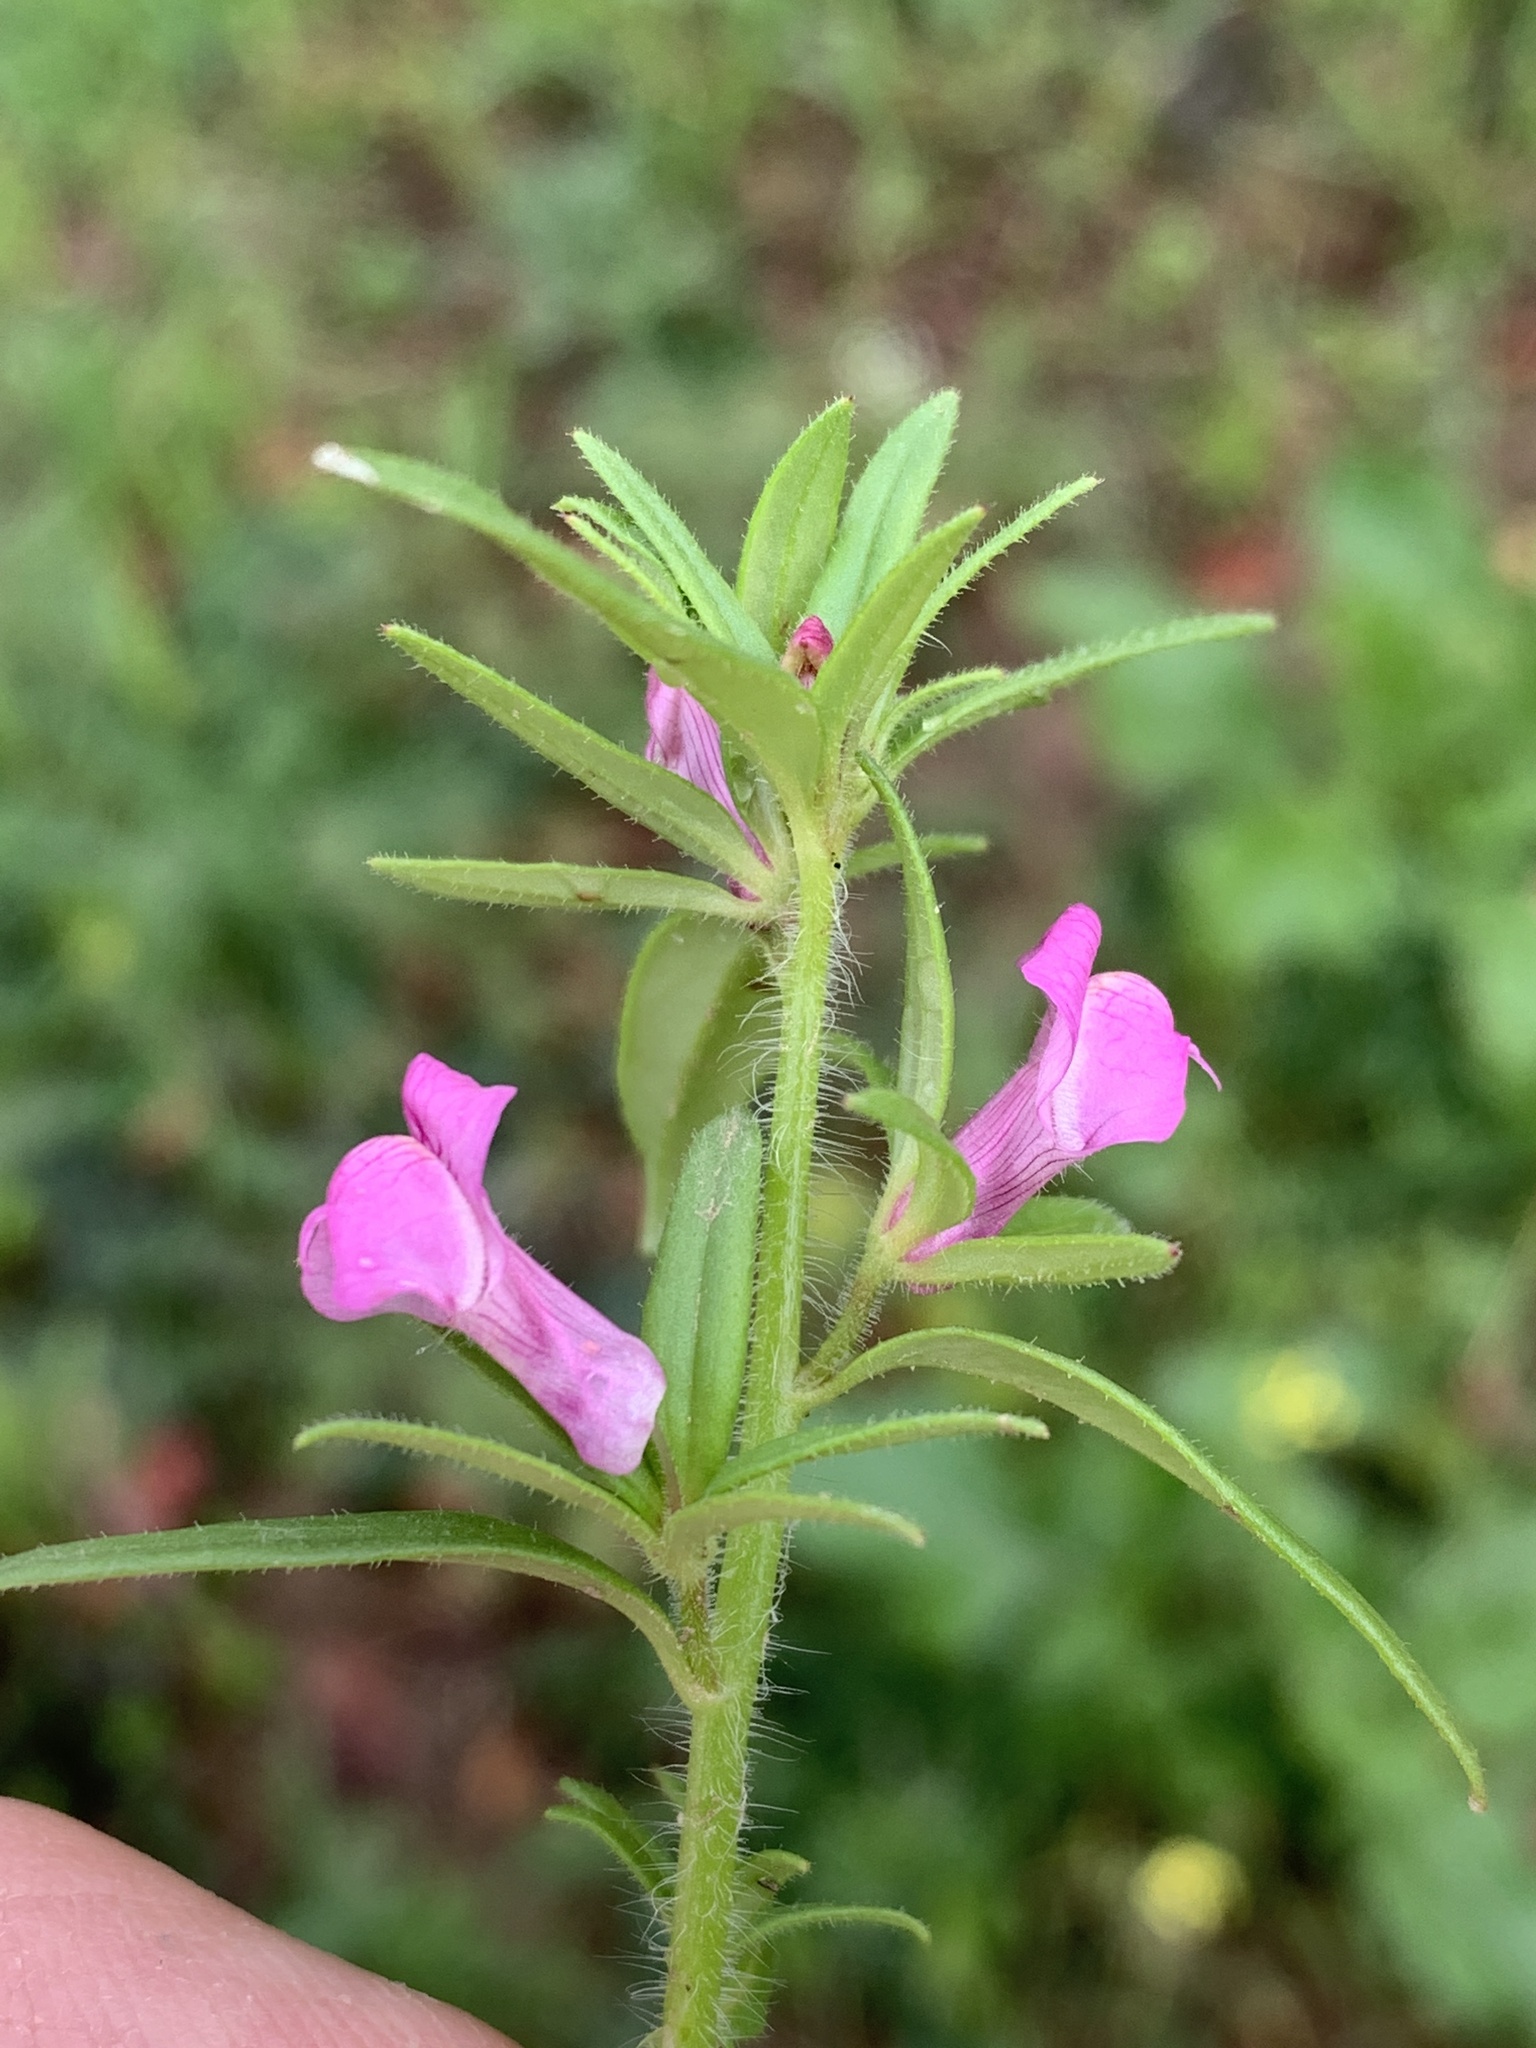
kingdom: Plantae
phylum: Tracheophyta
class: Magnoliopsida
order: Lamiales
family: Plantaginaceae
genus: Misopates
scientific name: Misopates orontium
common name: Weasel's-snout
